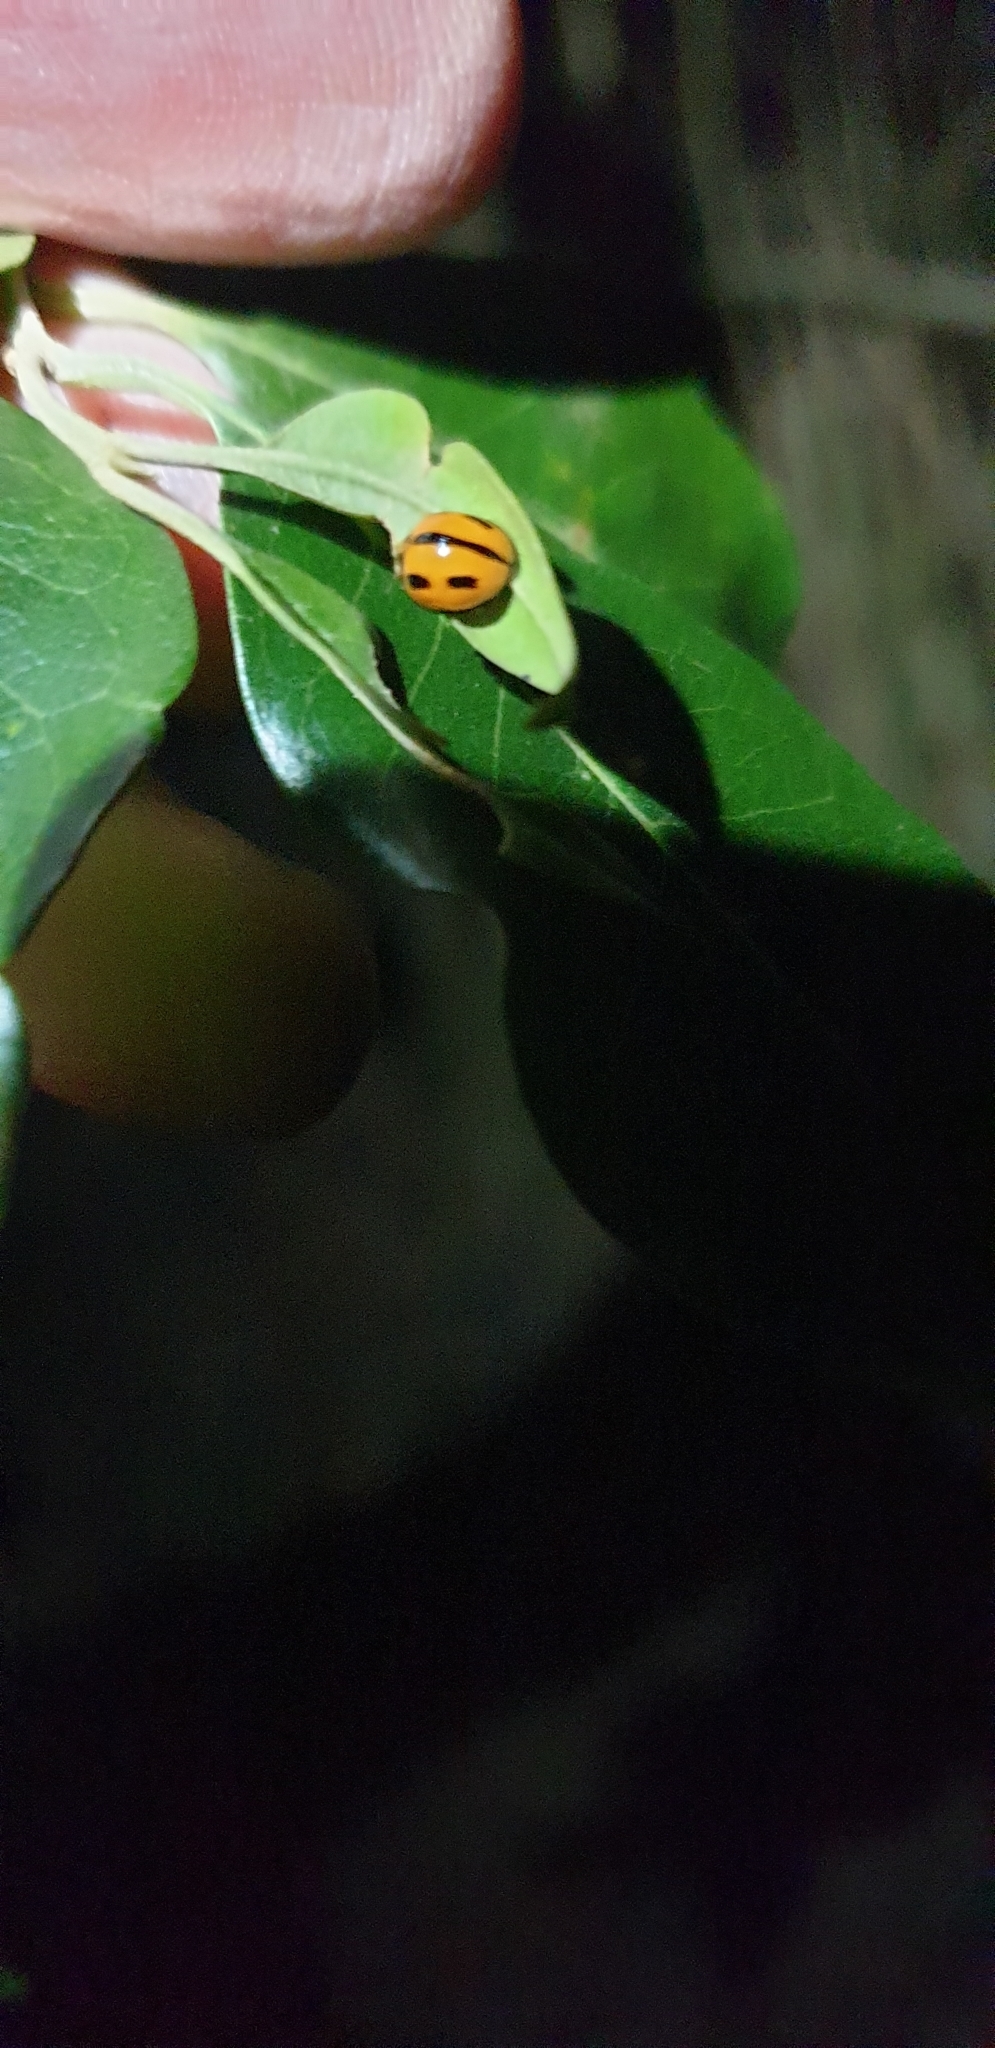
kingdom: Animalia
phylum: Arthropoda
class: Insecta
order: Coleoptera
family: Coccinellidae
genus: Coelophora
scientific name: Coelophora inaequalis
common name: Common australian lady beetle
